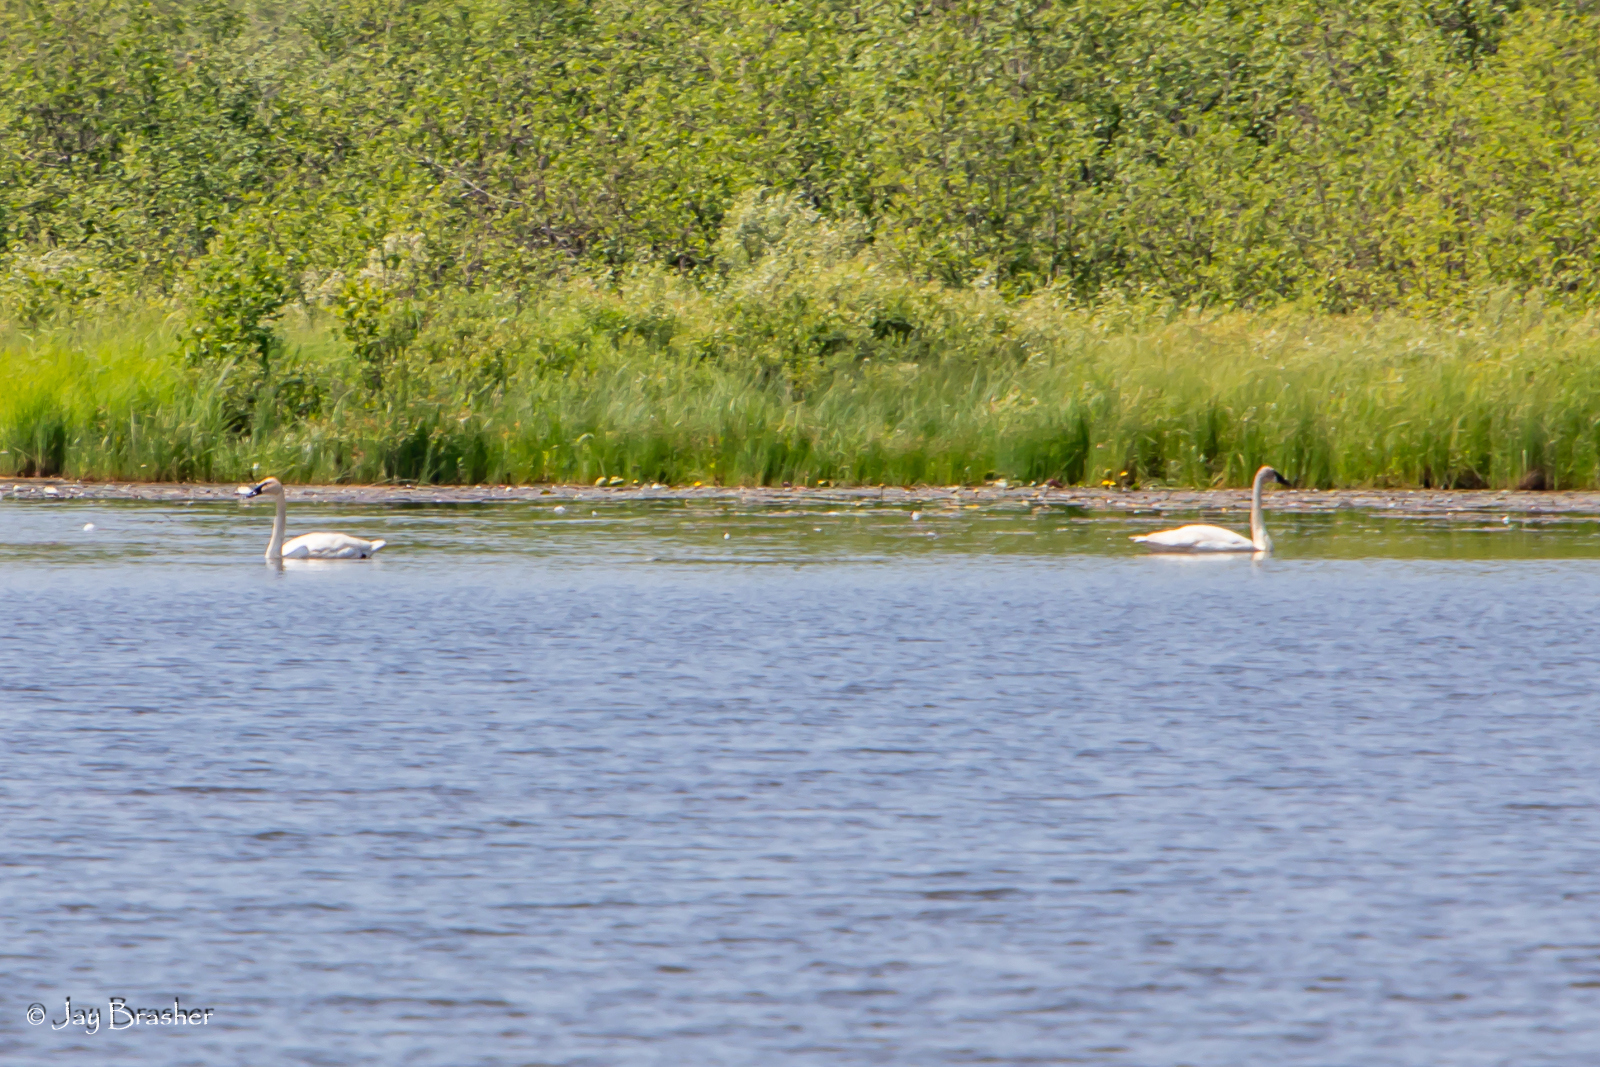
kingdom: Animalia
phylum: Chordata
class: Aves
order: Anseriformes
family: Anatidae
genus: Cygnus
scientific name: Cygnus buccinator
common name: Trumpeter swan
